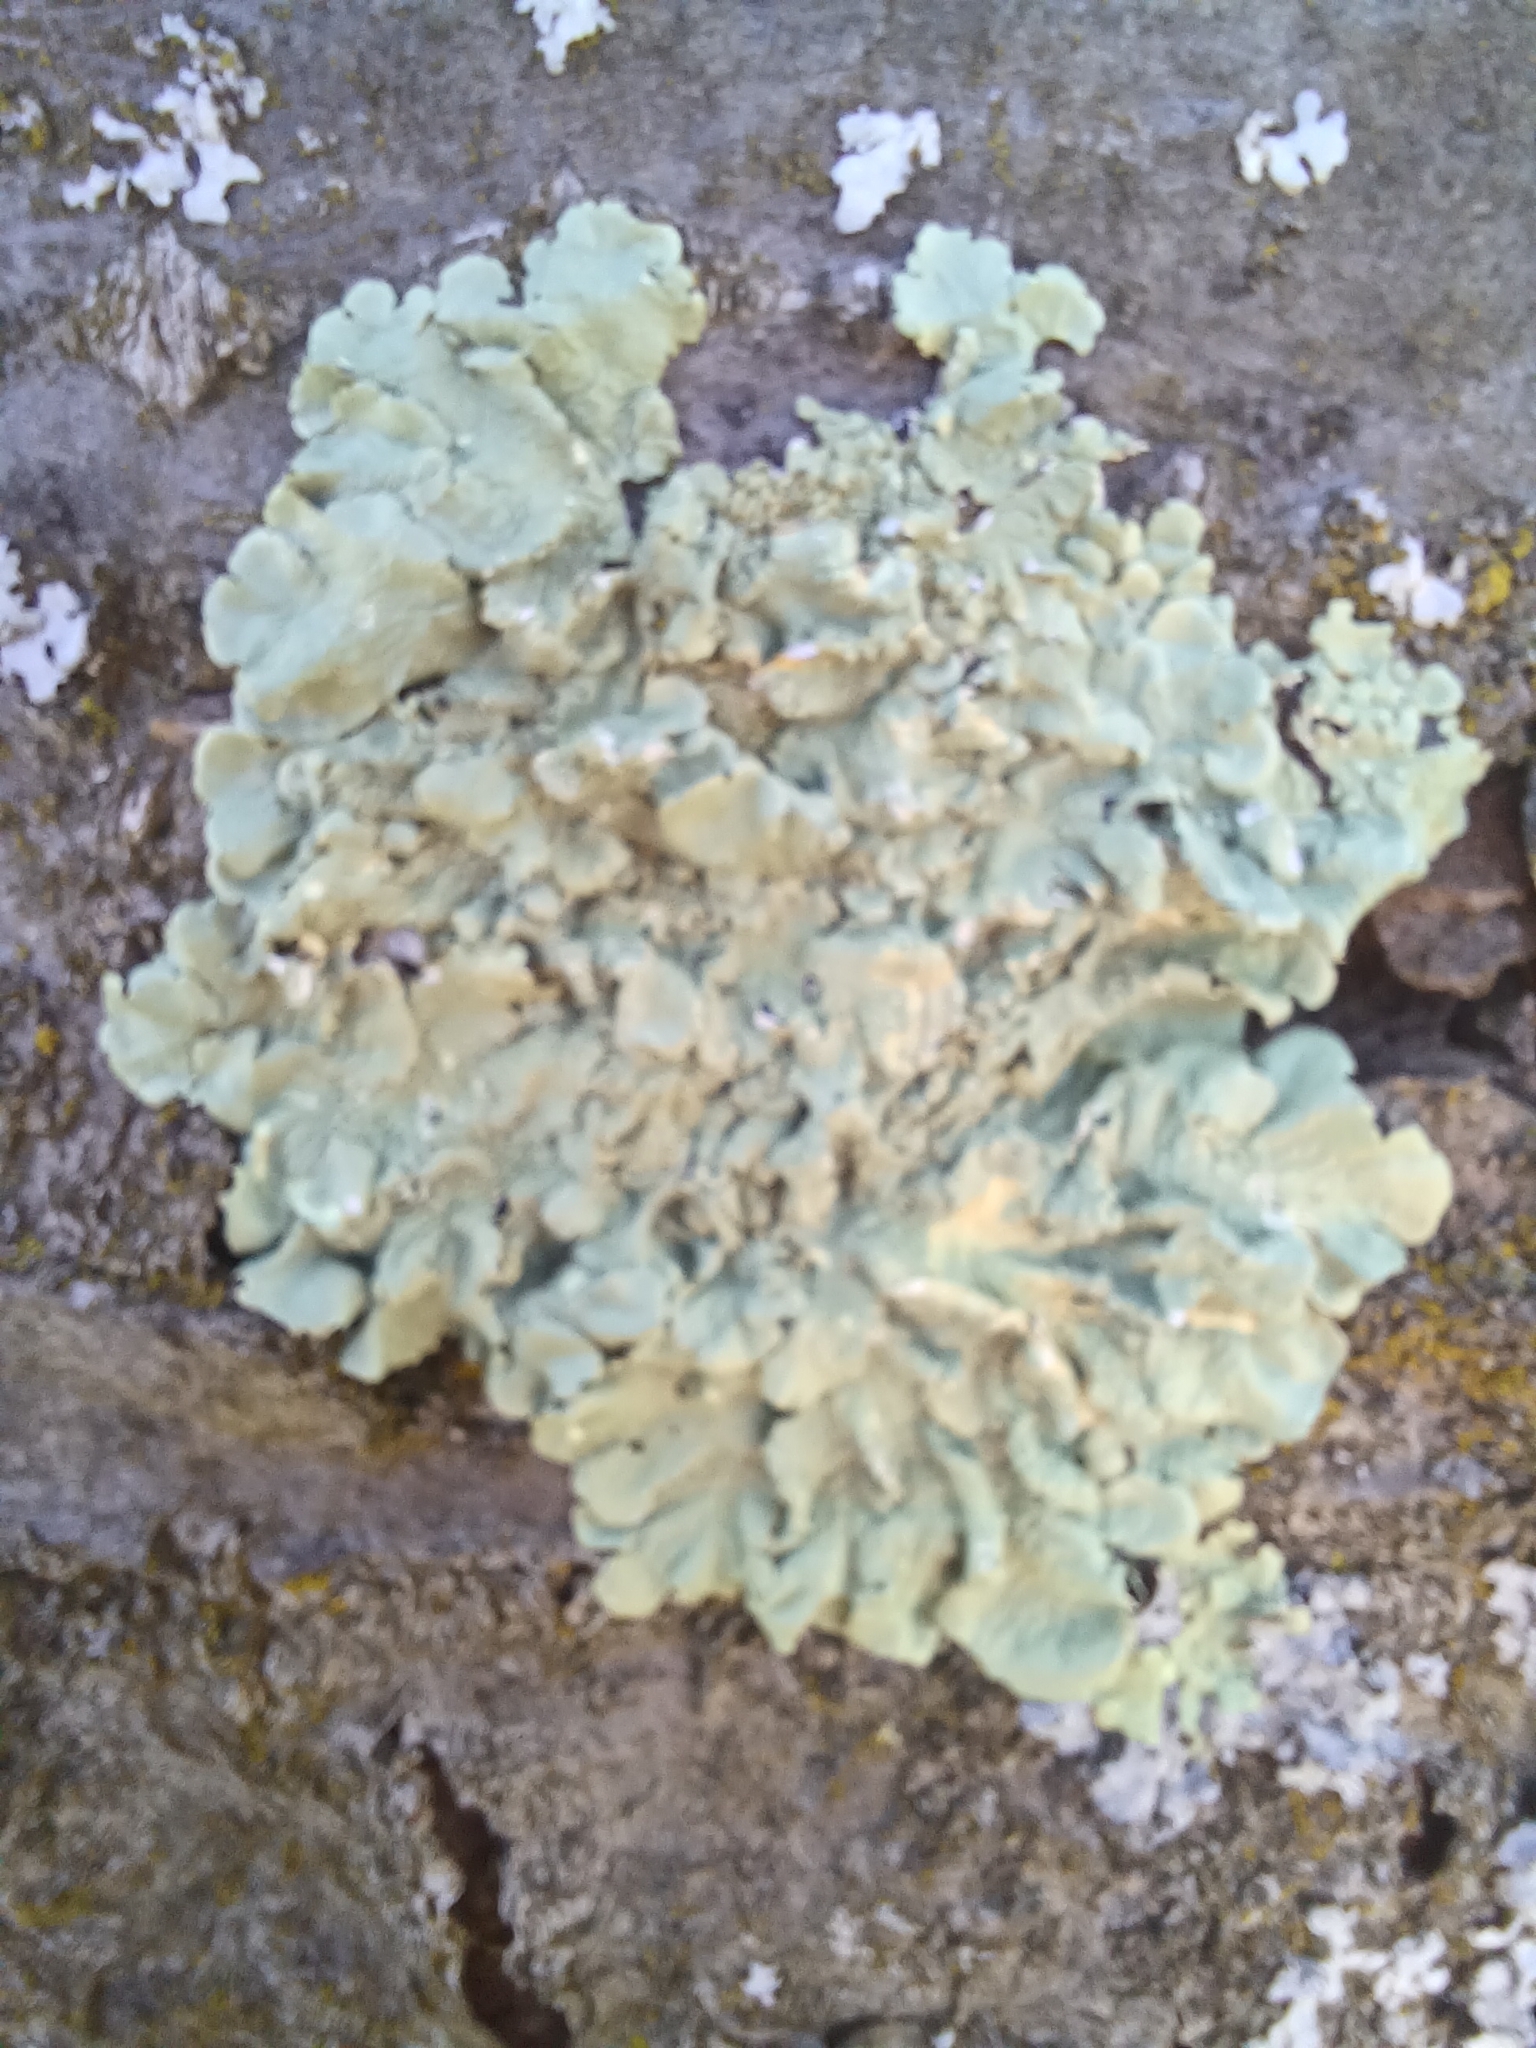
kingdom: Fungi
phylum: Ascomycota
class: Lecanoromycetes
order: Lecanorales
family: Parmeliaceae
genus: Flavoparmelia
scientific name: Flavoparmelia caperata
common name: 40-mile per hour lichen
